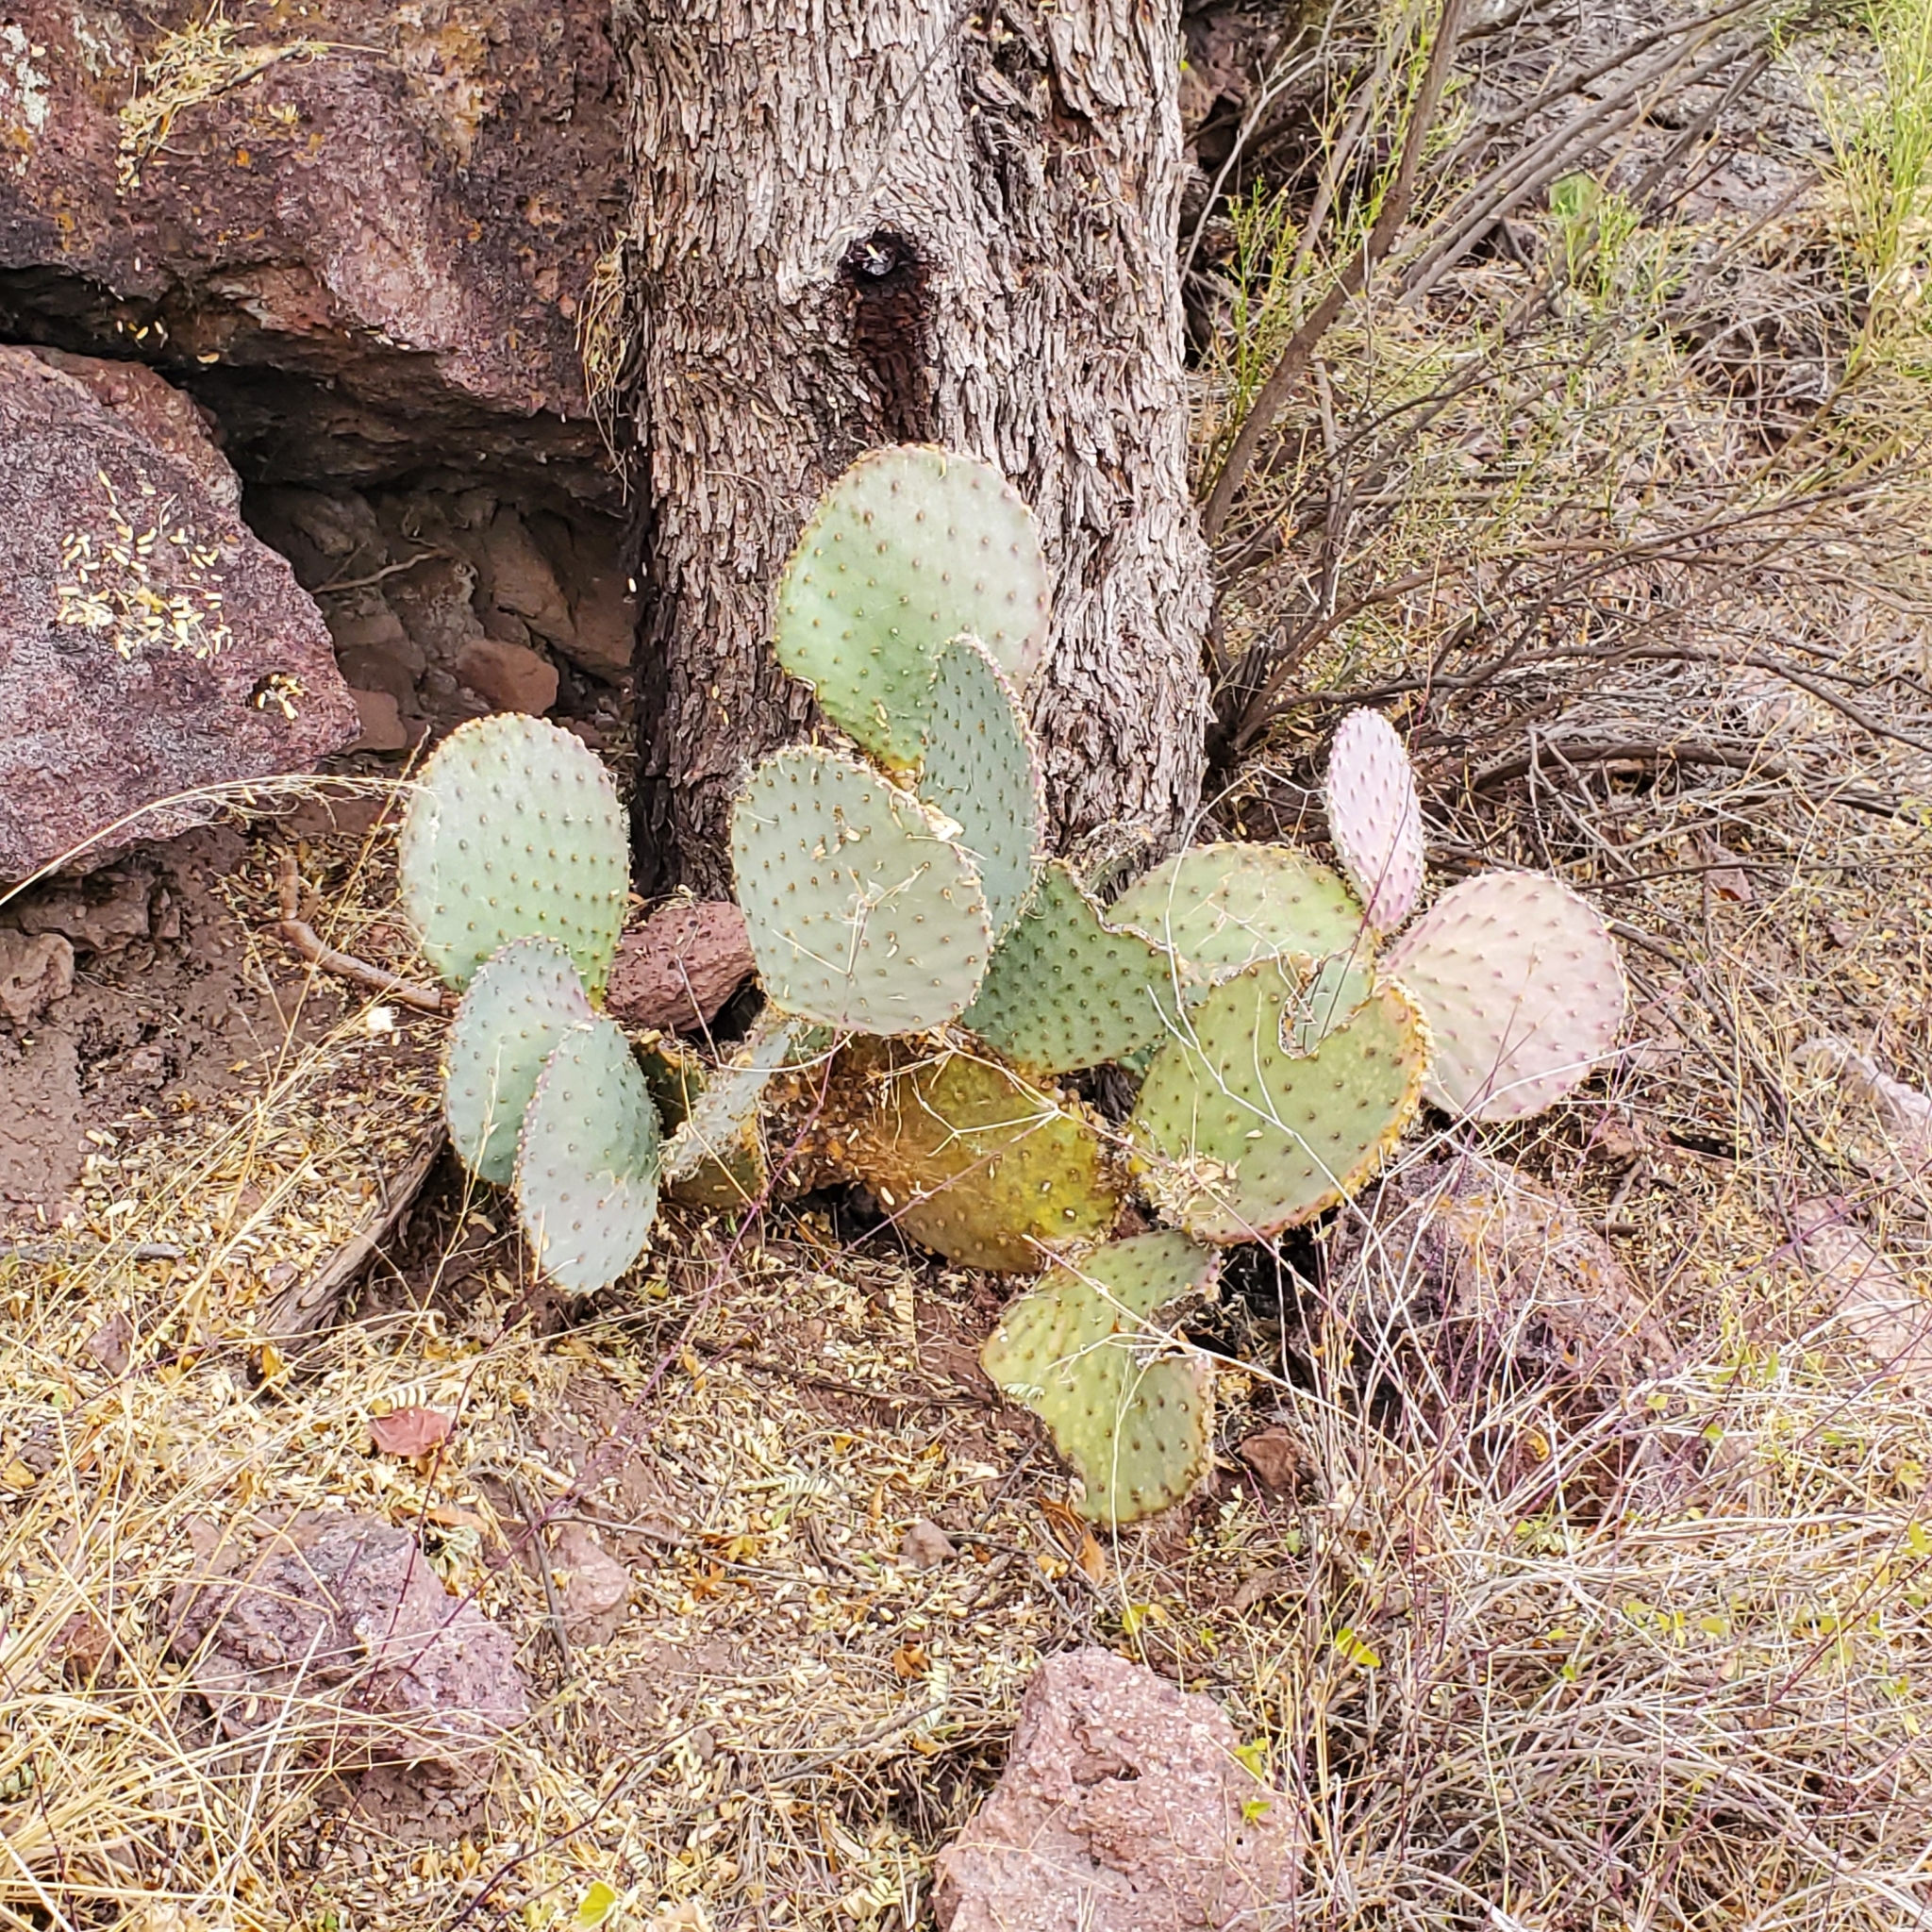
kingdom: Plantae
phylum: Tracheophyta
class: Magnoliopsida
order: Caryophyllales
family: Cactaceae
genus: Opuntia
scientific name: Opuntia gosseliniana
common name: Violet prickly-pear
